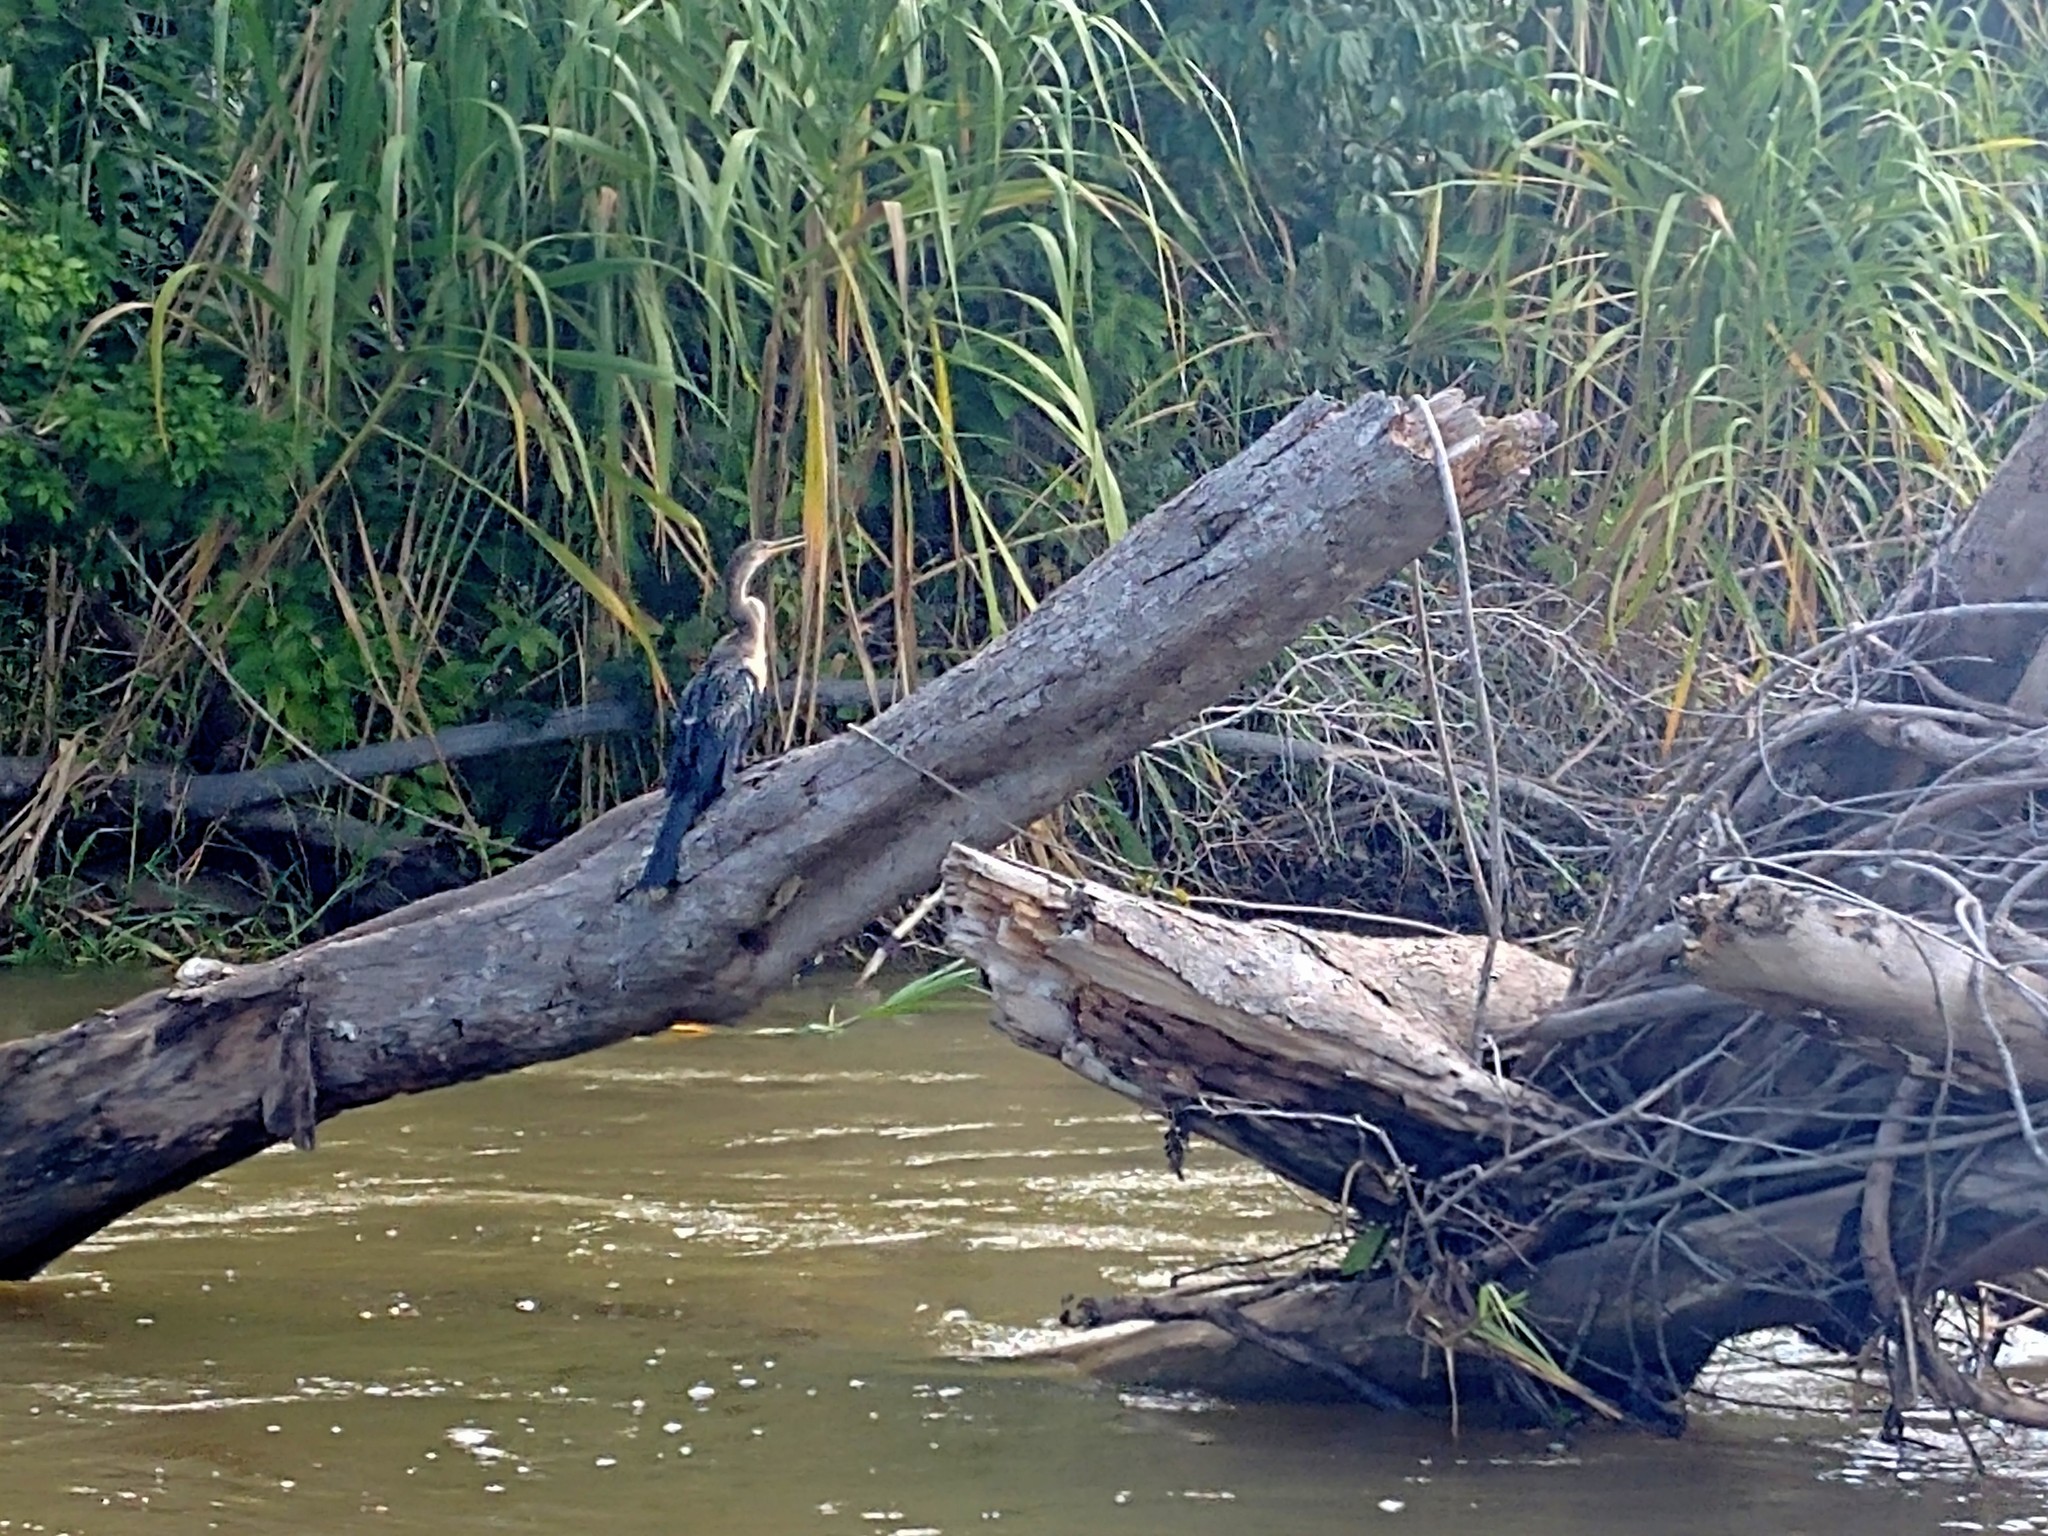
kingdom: Animalia
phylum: Chordata
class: Aves
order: Suliformes
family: Anhingidae
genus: Anhinga
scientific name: Anhinga anhinga
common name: Anhinga
